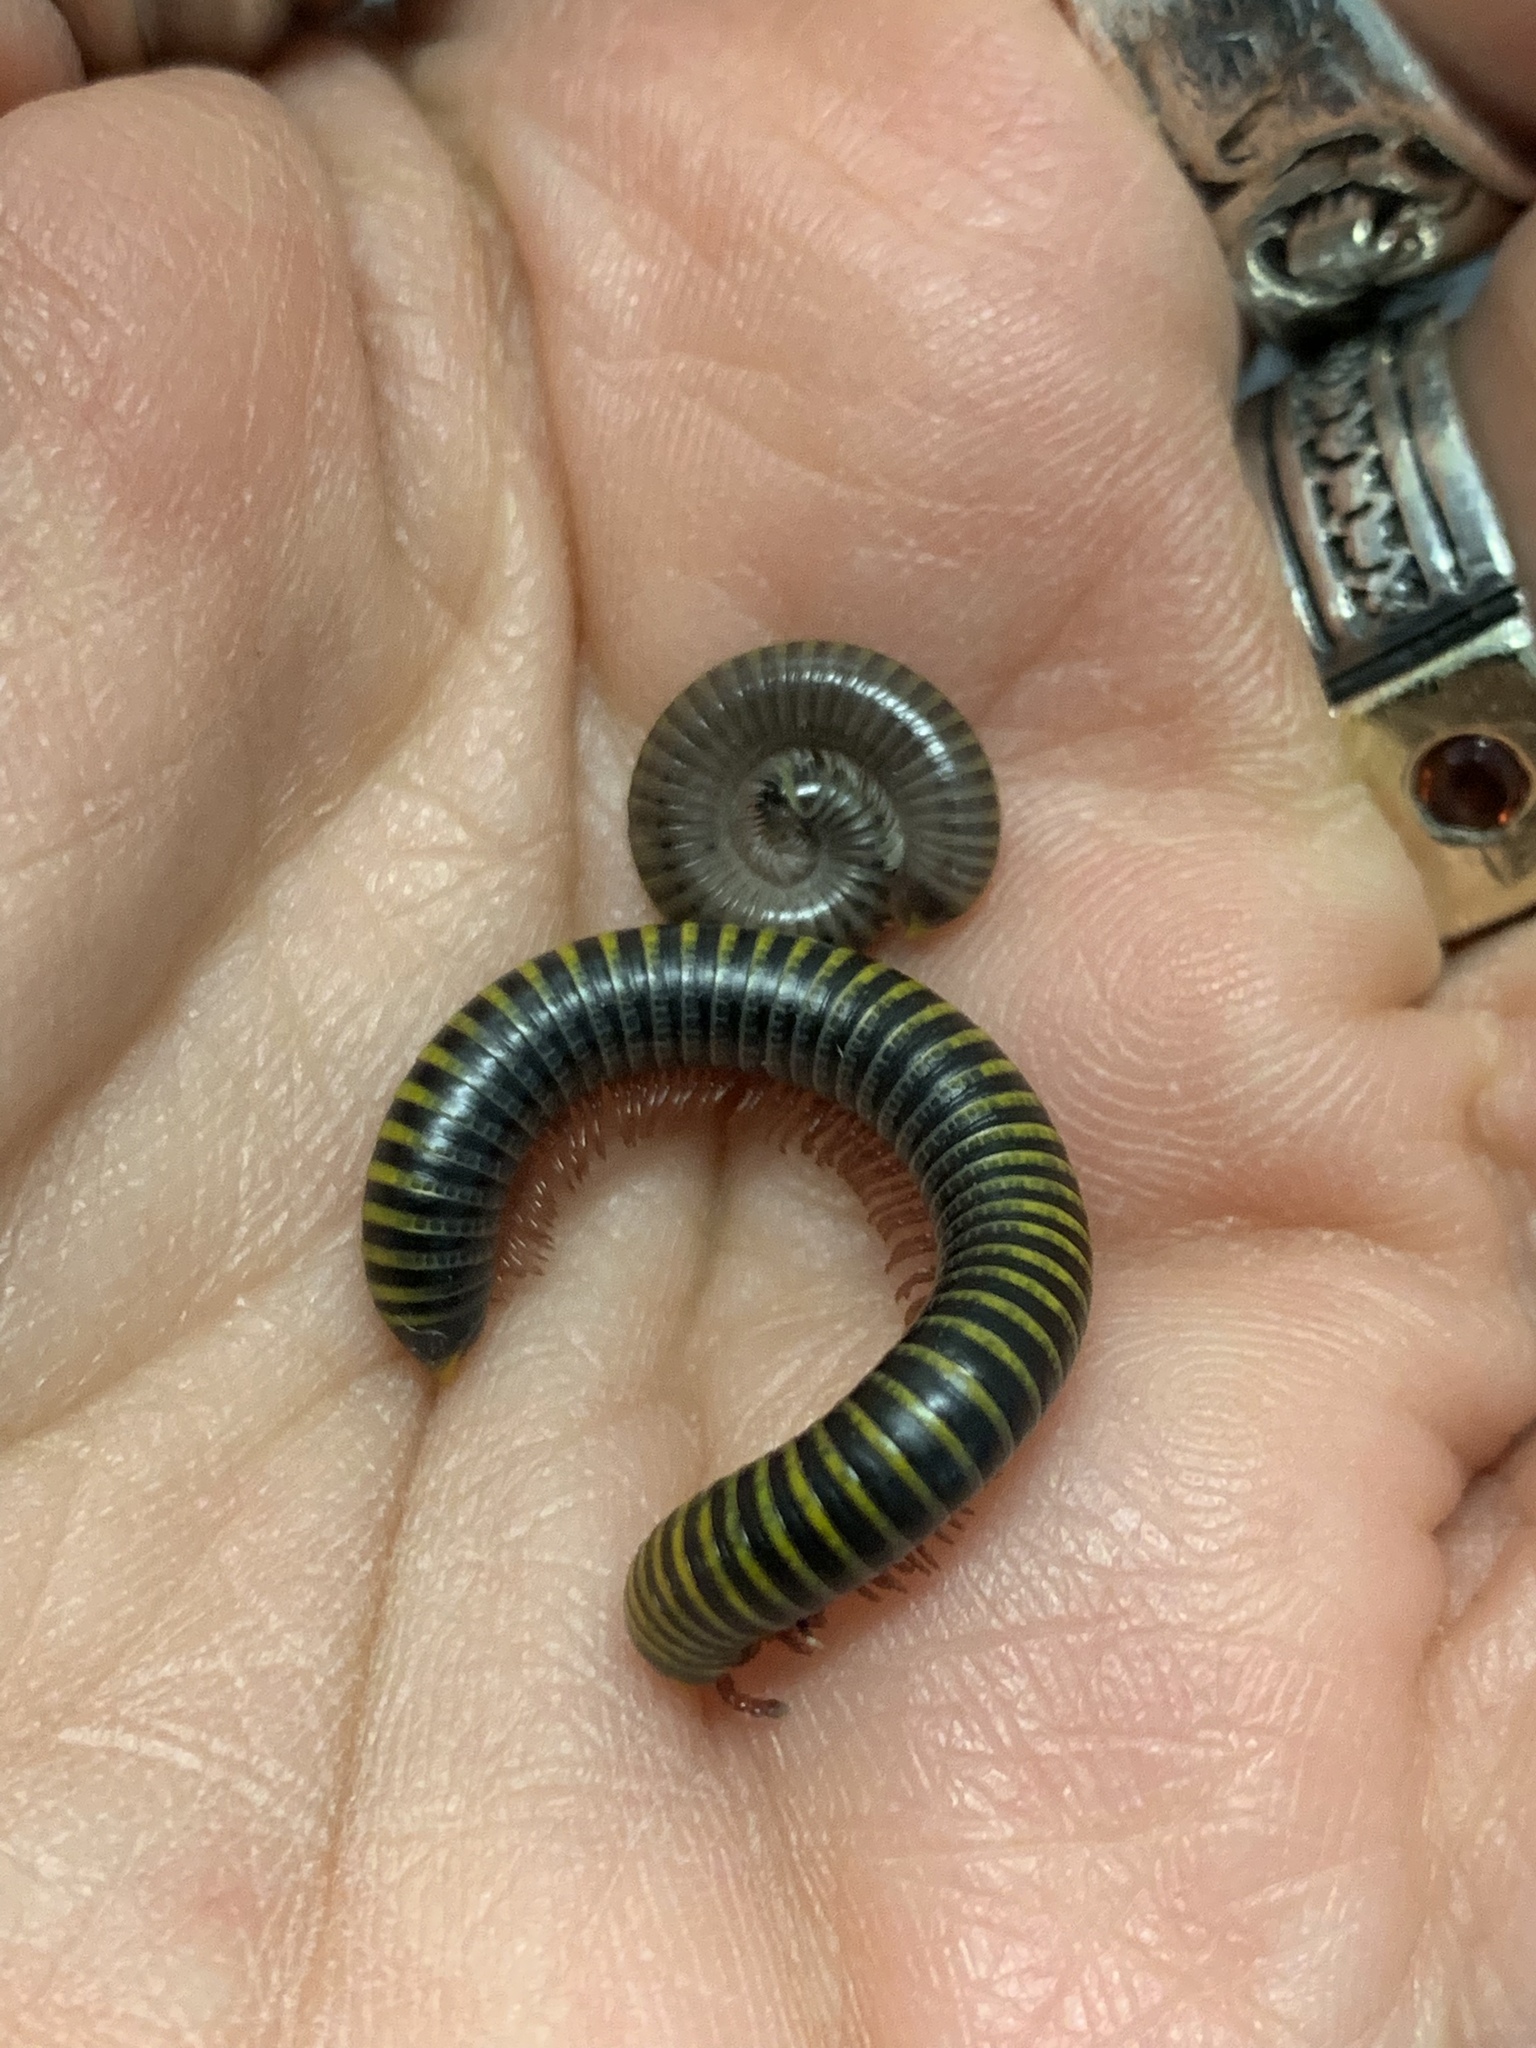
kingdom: Animalia
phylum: Arthropoda
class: Diplopoda
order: Spirobolida
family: Rhinocricidae
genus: Anadenobolus
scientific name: Anadenobolus monilicornis
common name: Caribbean millipede
